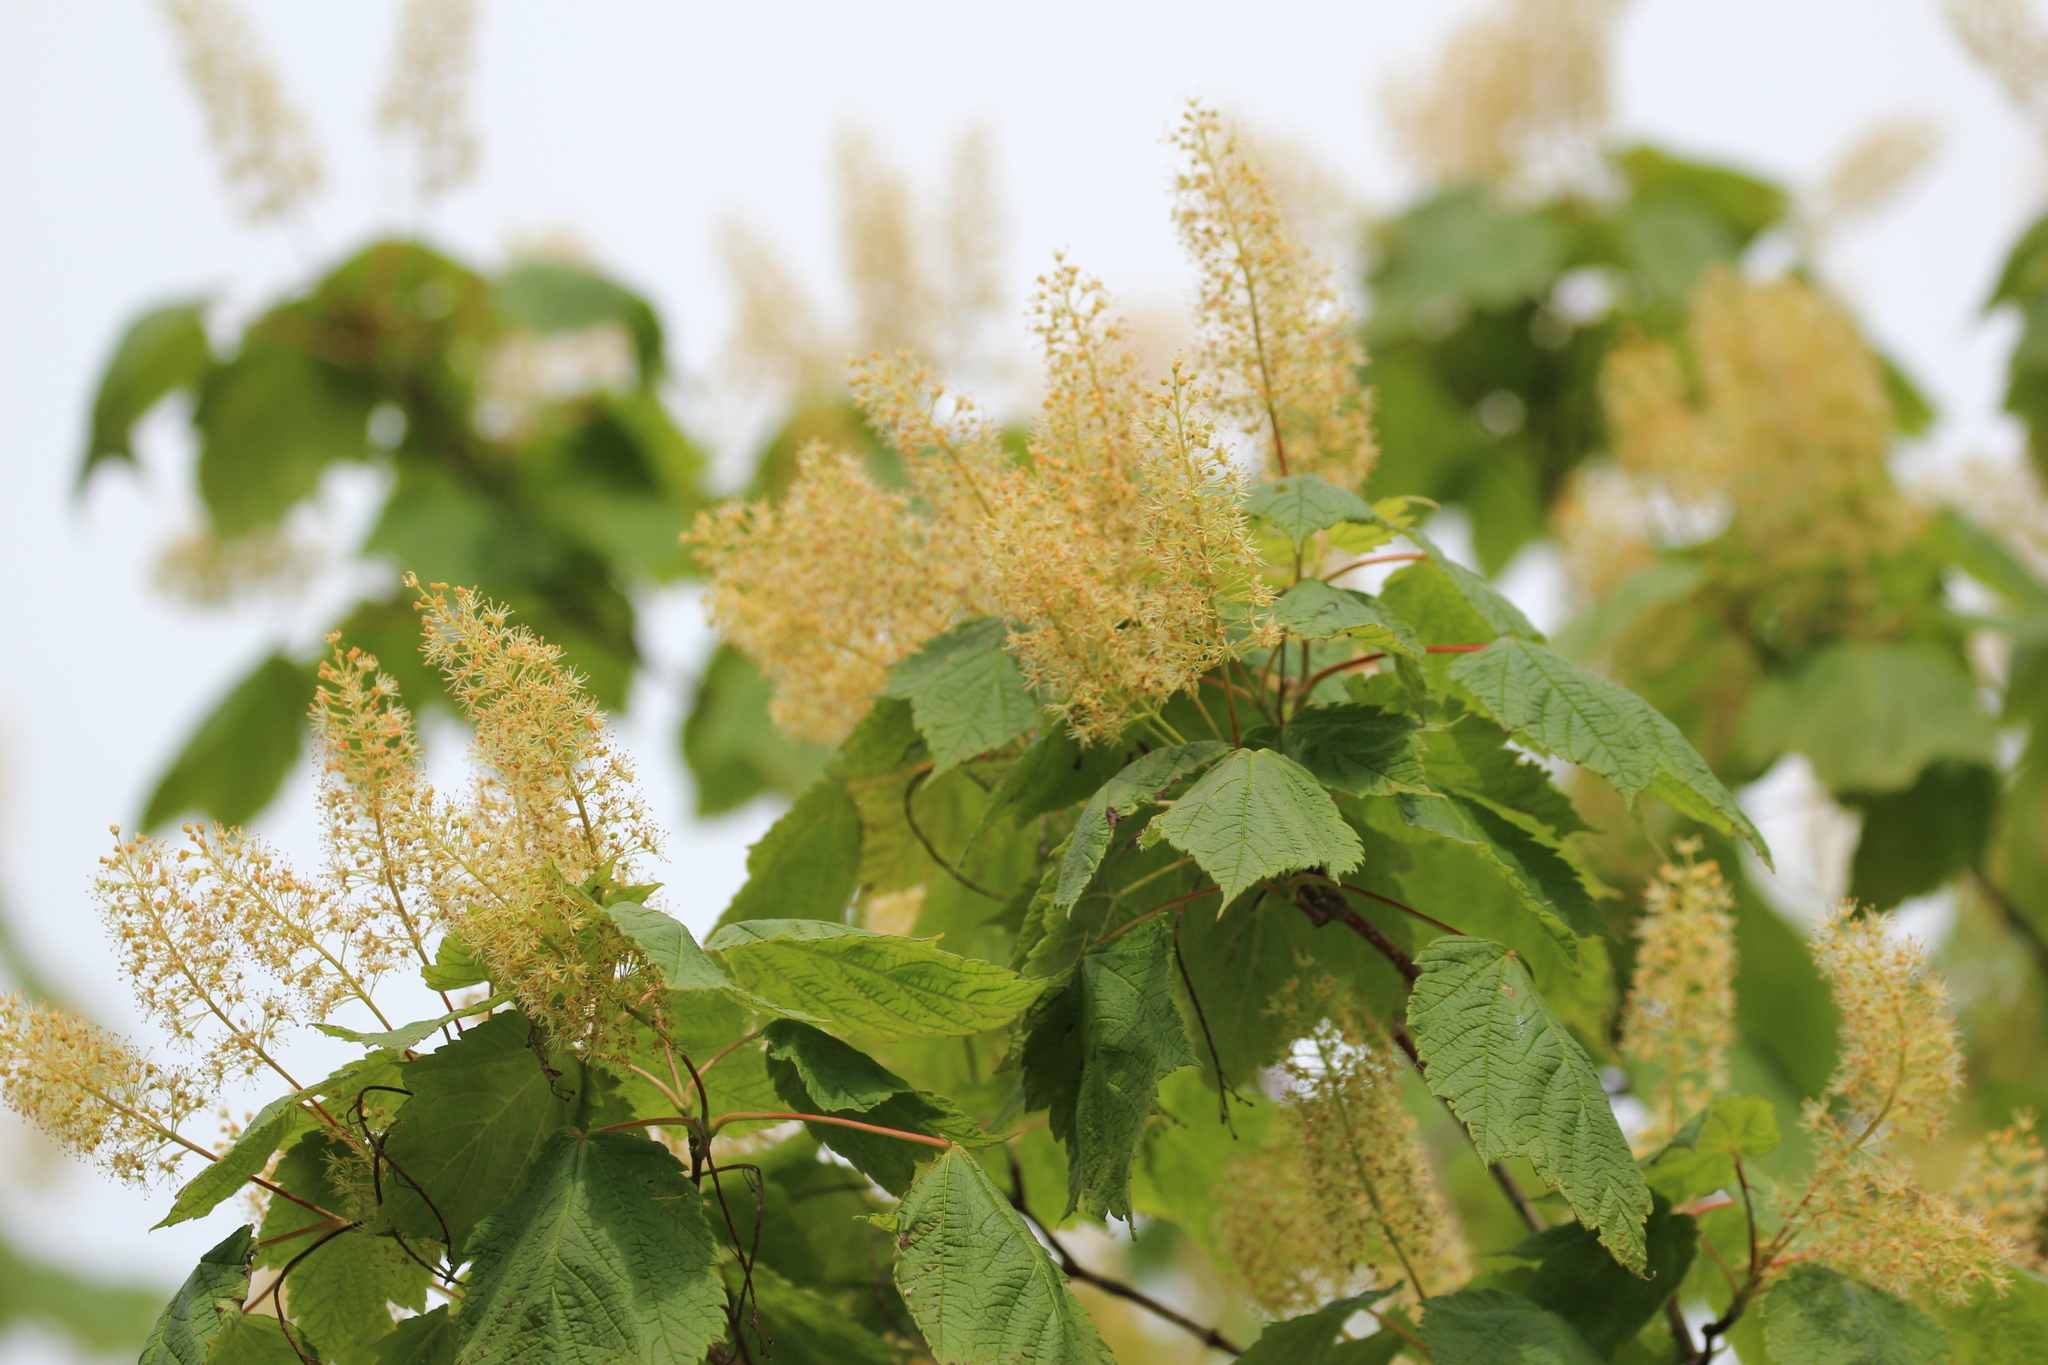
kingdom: Plantae
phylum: Tracheophyta
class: Magnoliopsida
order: Sapindales
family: Sapindaceae
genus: Acer
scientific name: Acer spicatum
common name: Mountain maple
